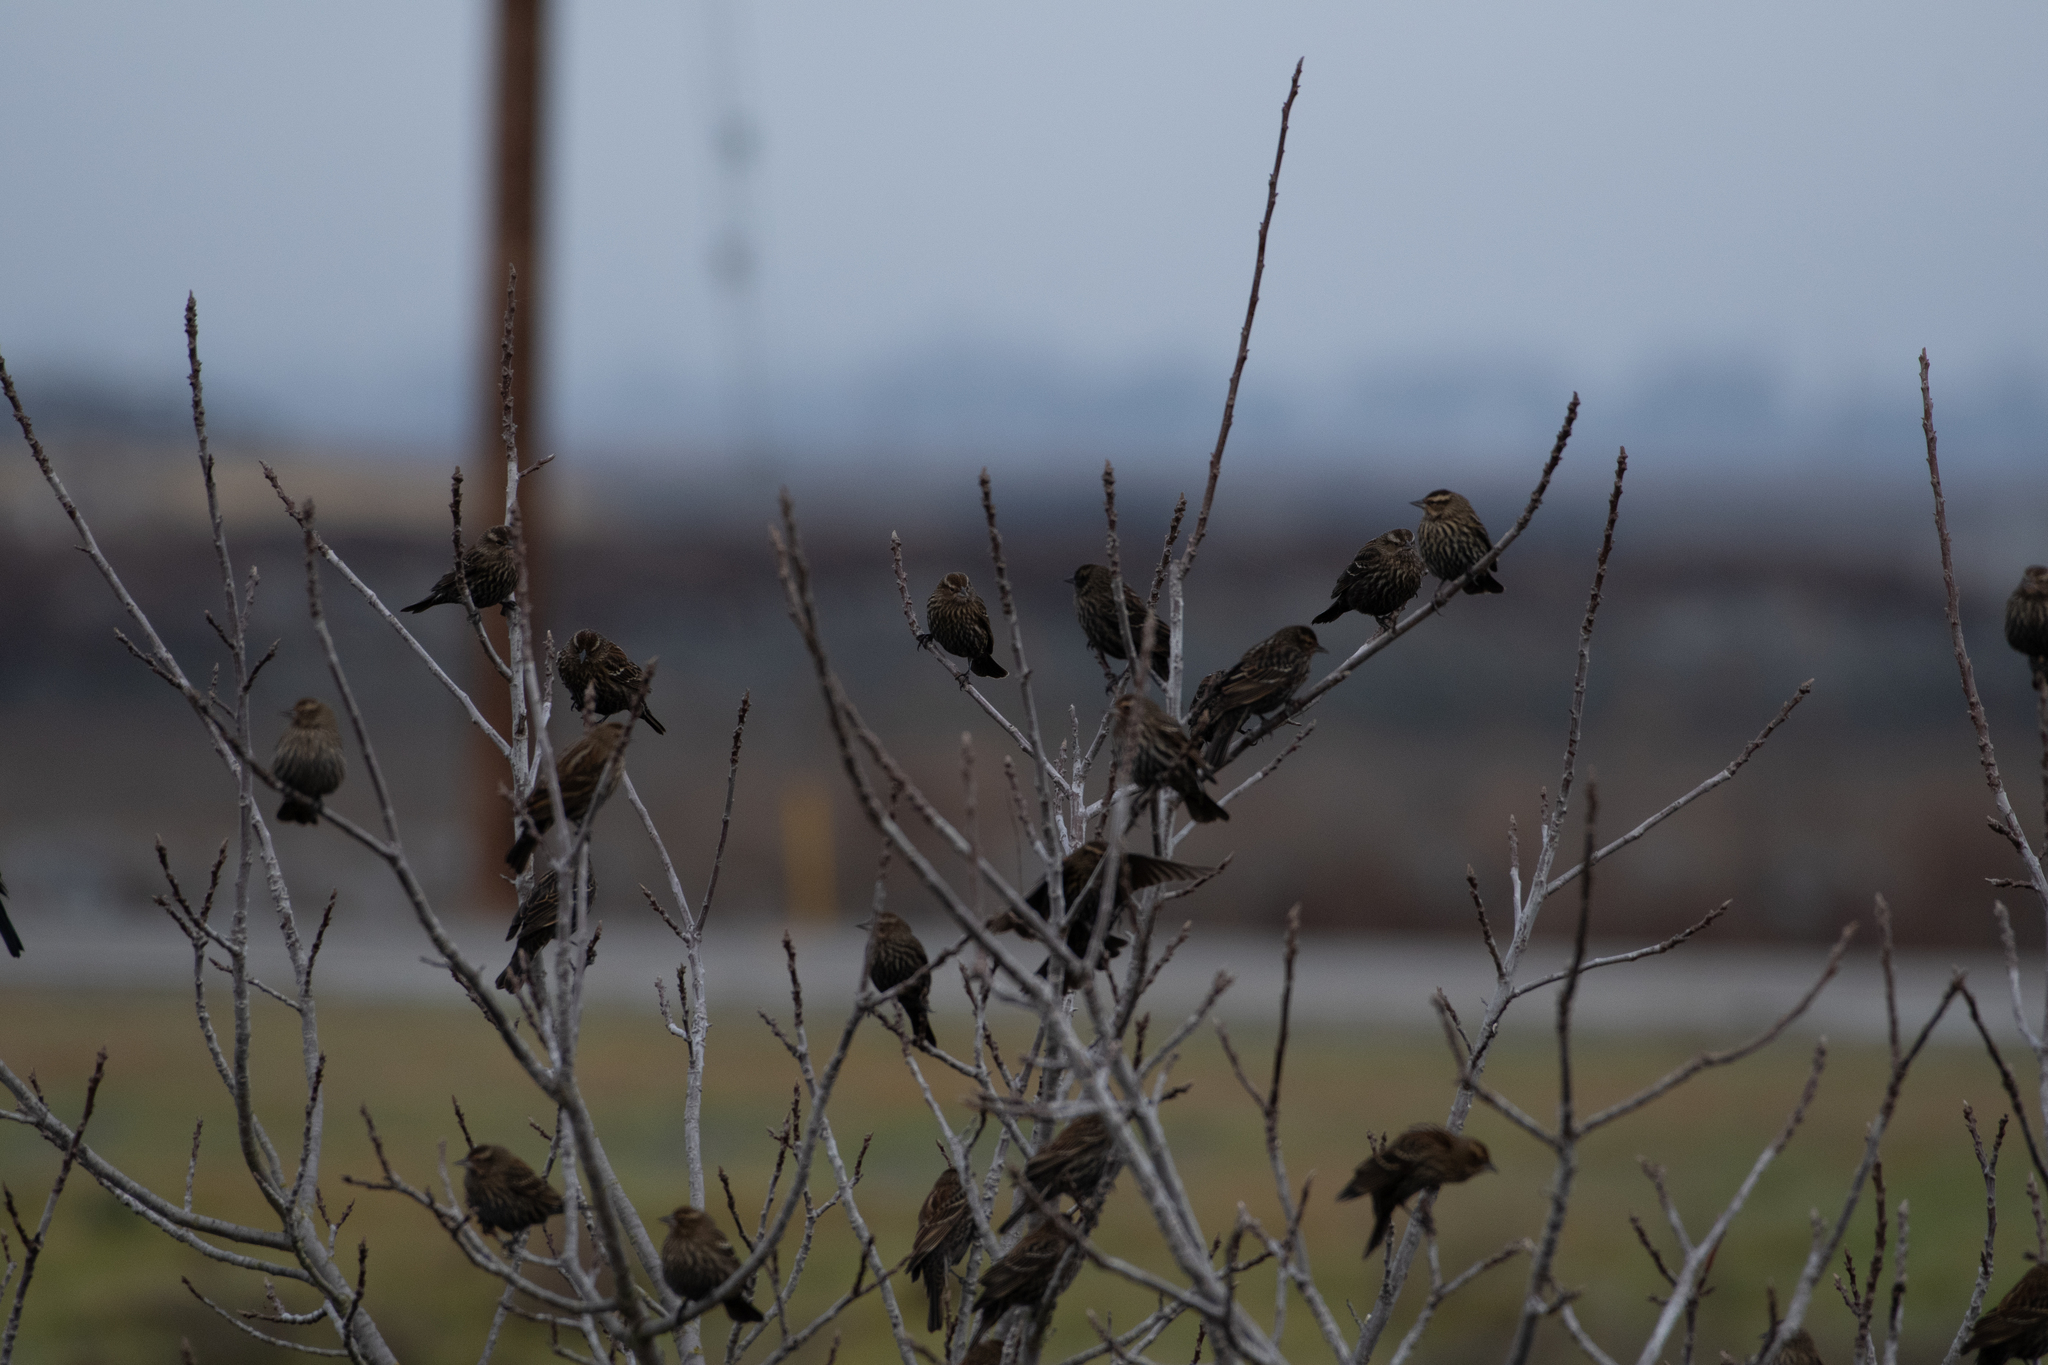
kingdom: Animalia
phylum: Chordata
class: Aves
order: Passeriformes
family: Icteridae
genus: Agelaius
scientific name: Agelaius phoeniceus
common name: Red-winged blackbird
